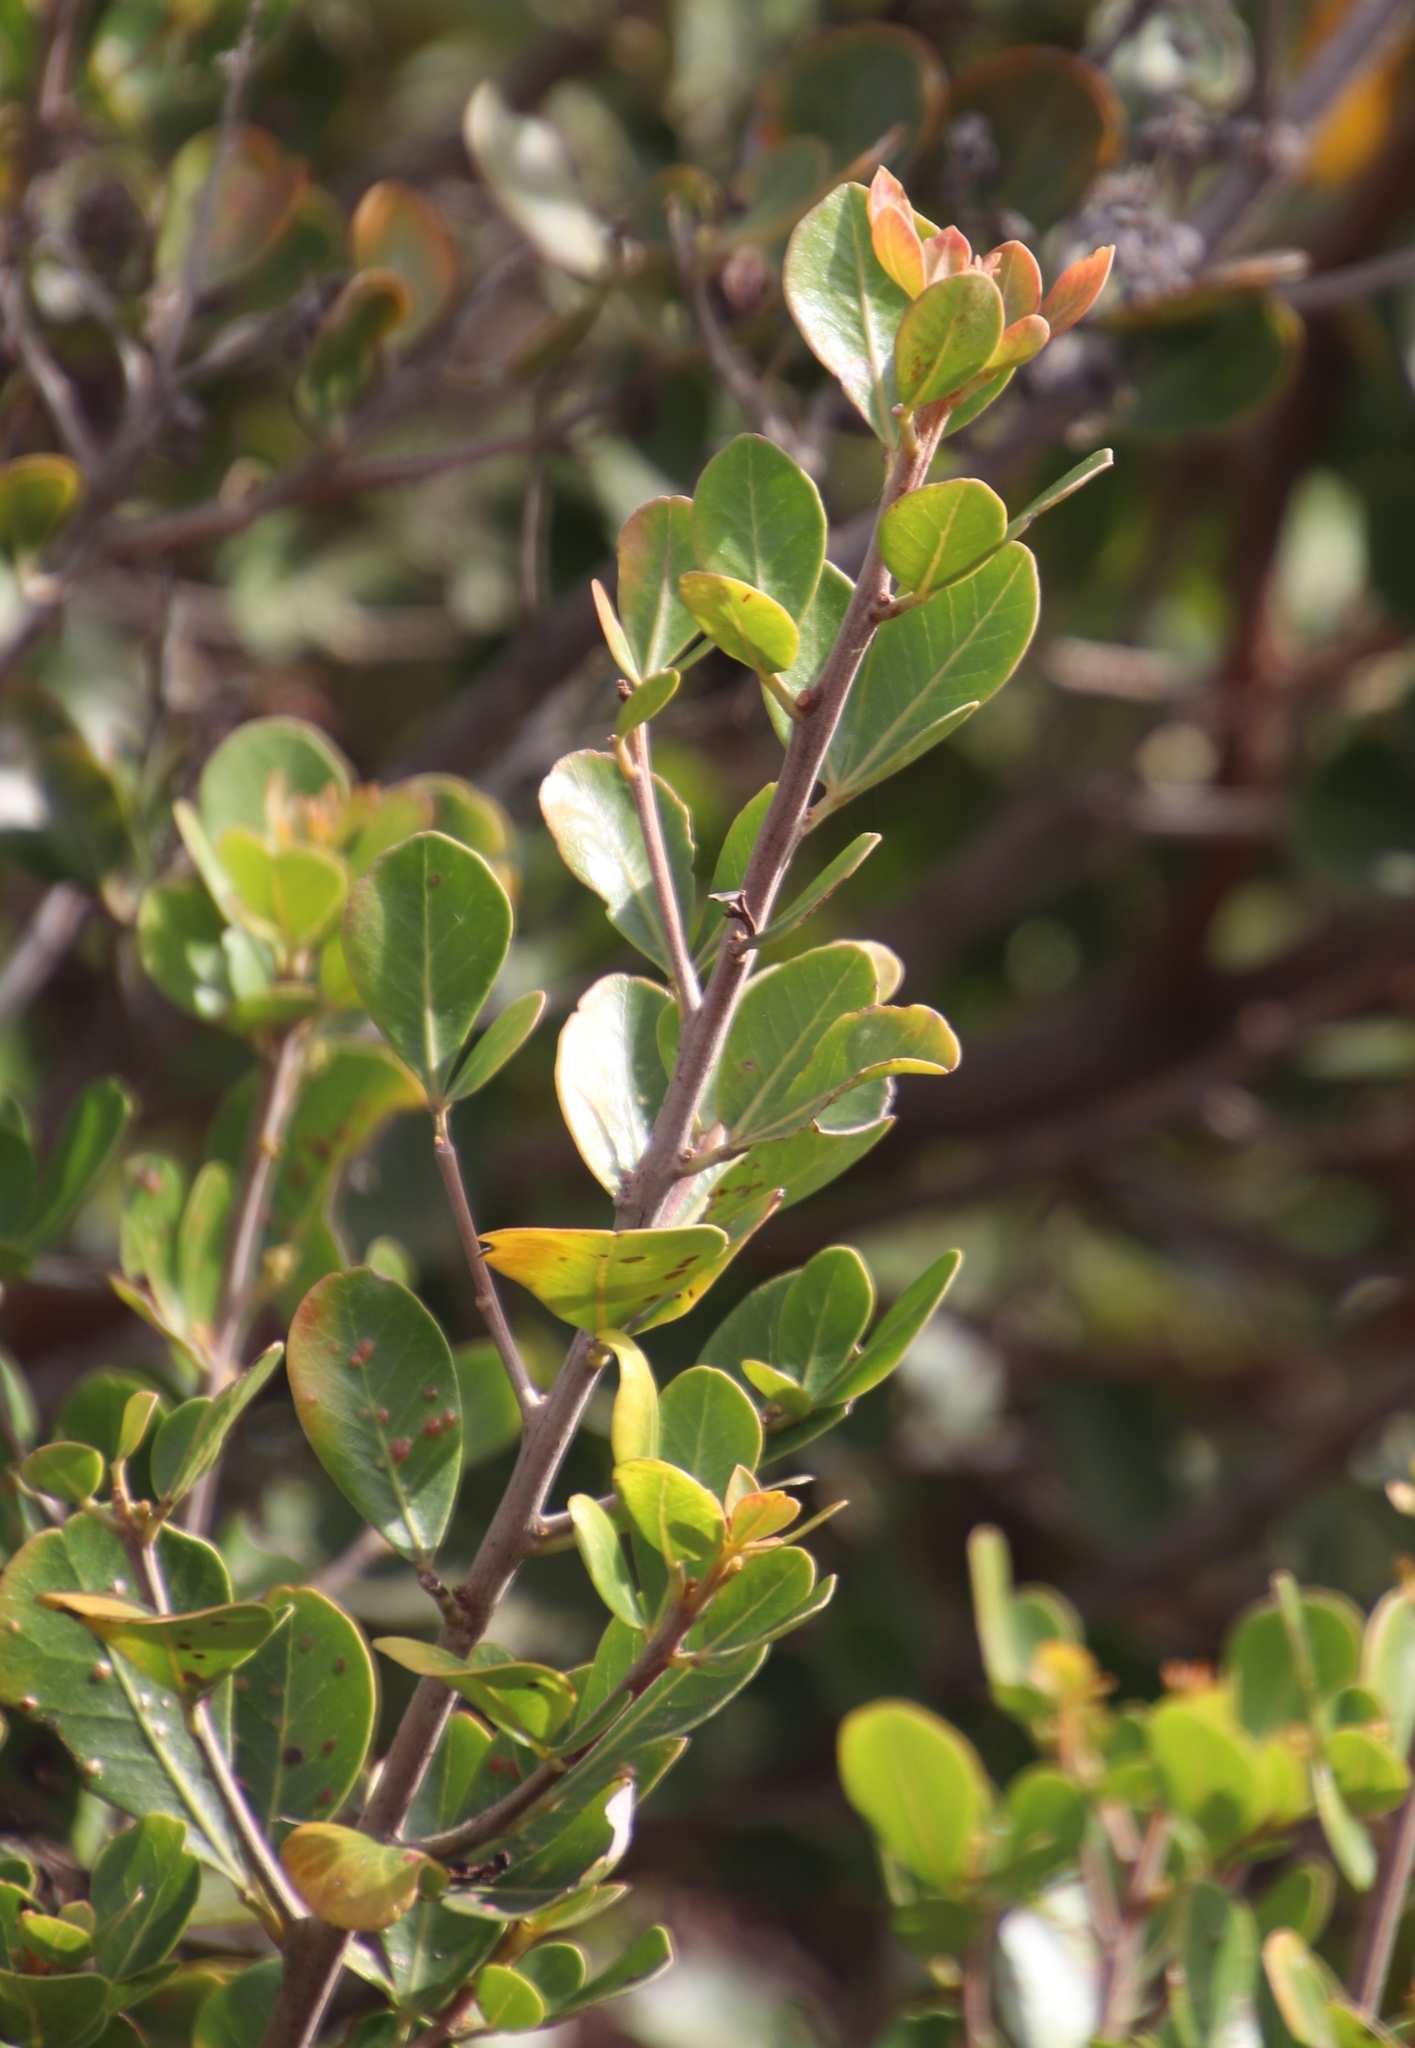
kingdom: Plantae
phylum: Tracheophyta
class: Magnoliopsida
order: Sapindales
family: Anacardiaceae
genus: Searsia
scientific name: Searsia lucida
